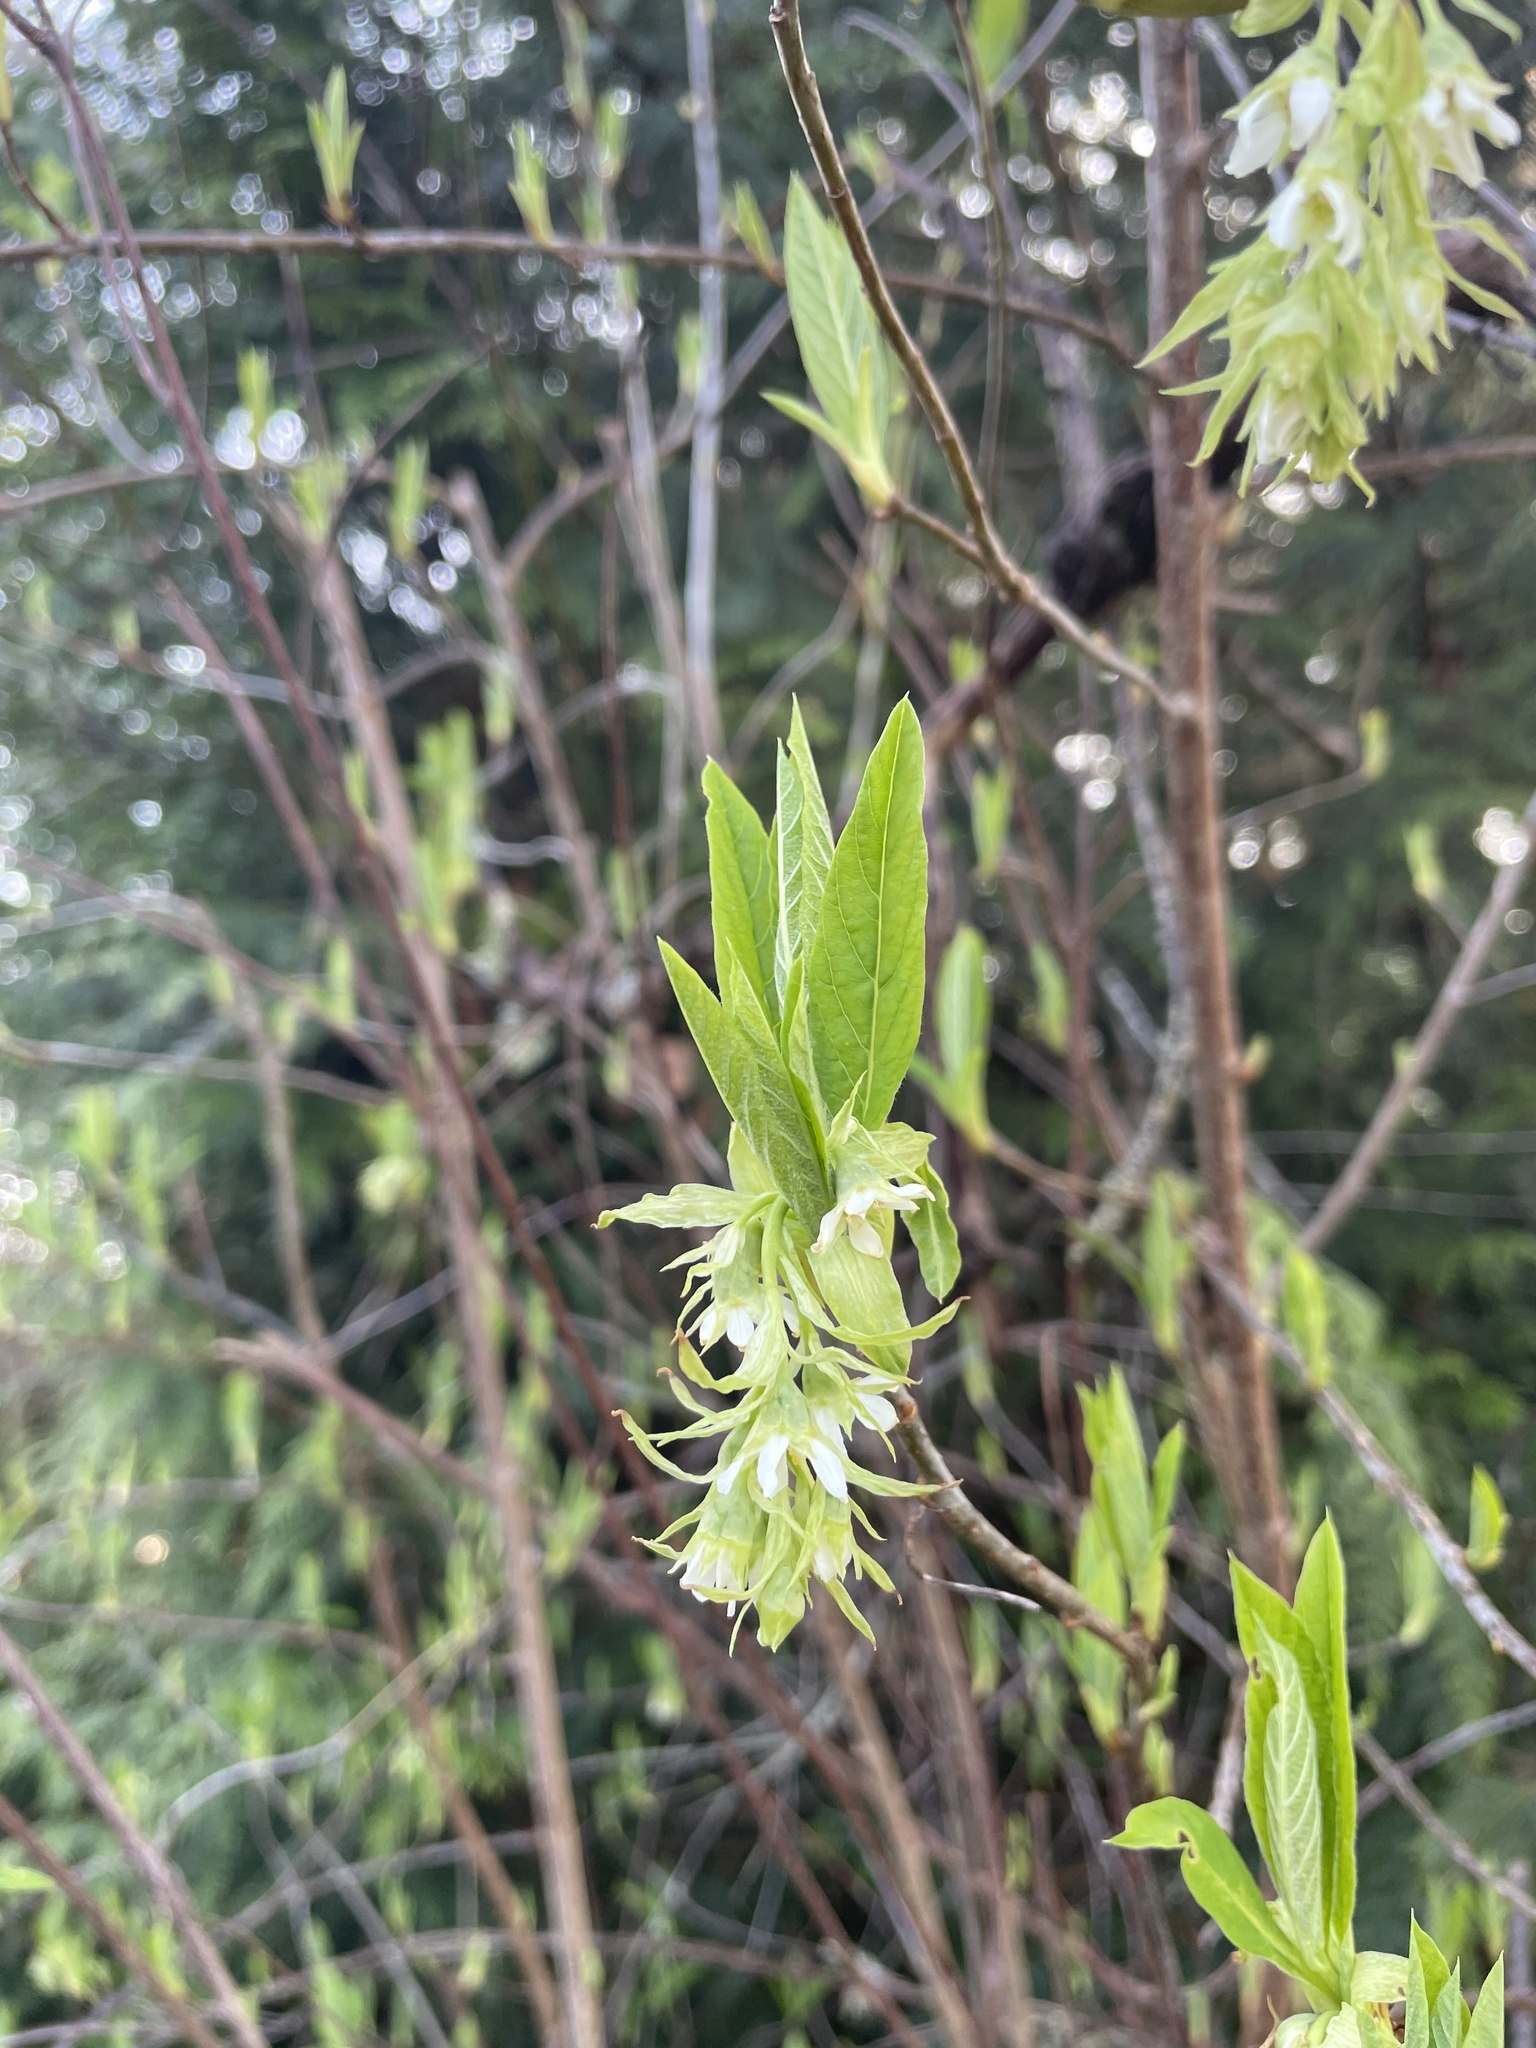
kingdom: Plantae
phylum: Tracheophyta
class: Magnoliopsida
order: Rosales
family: Rosaceae
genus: Oemleria
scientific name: Oemleria cerasiformis
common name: Osoberry
